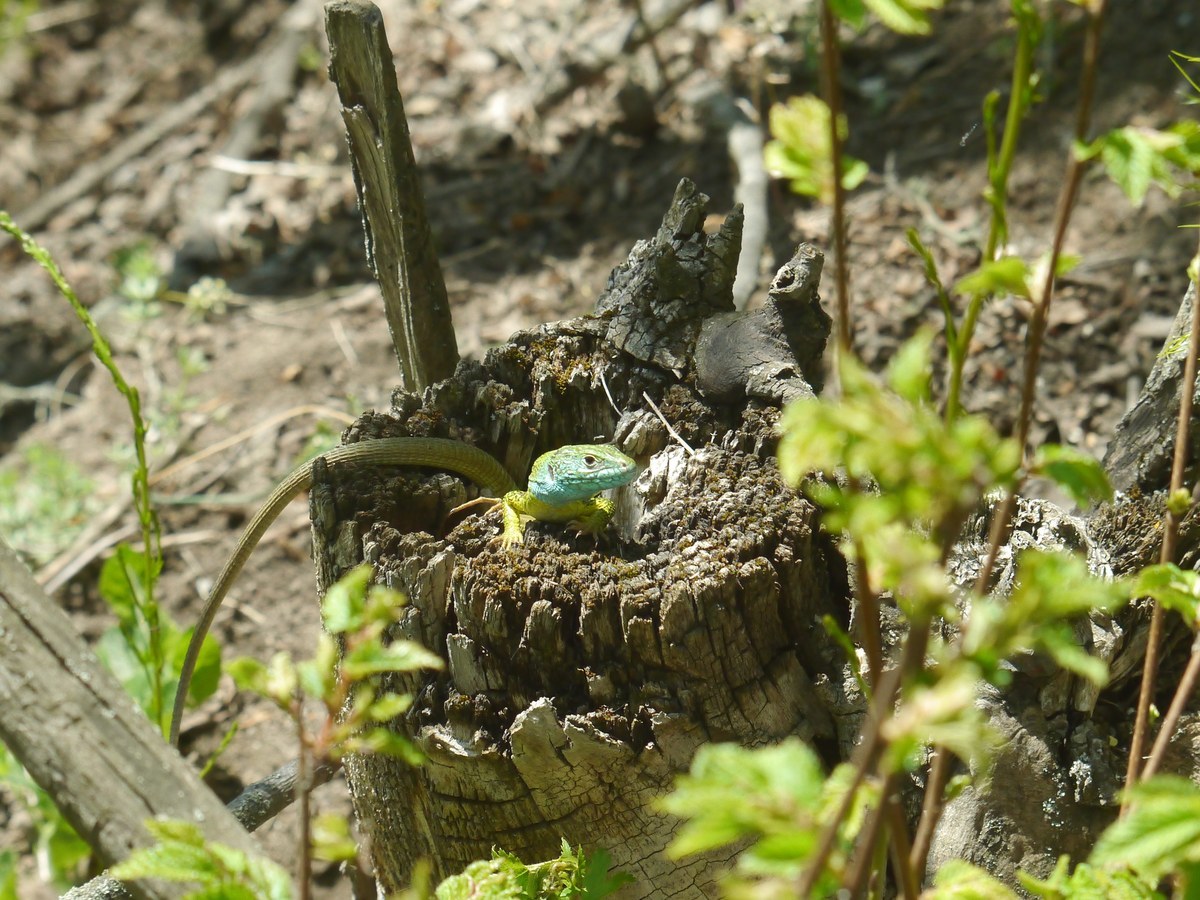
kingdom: Animalia
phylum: Chordata
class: Squamata
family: Lacertidae
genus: Lacerta
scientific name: Lacerta viridis
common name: European green lizard
